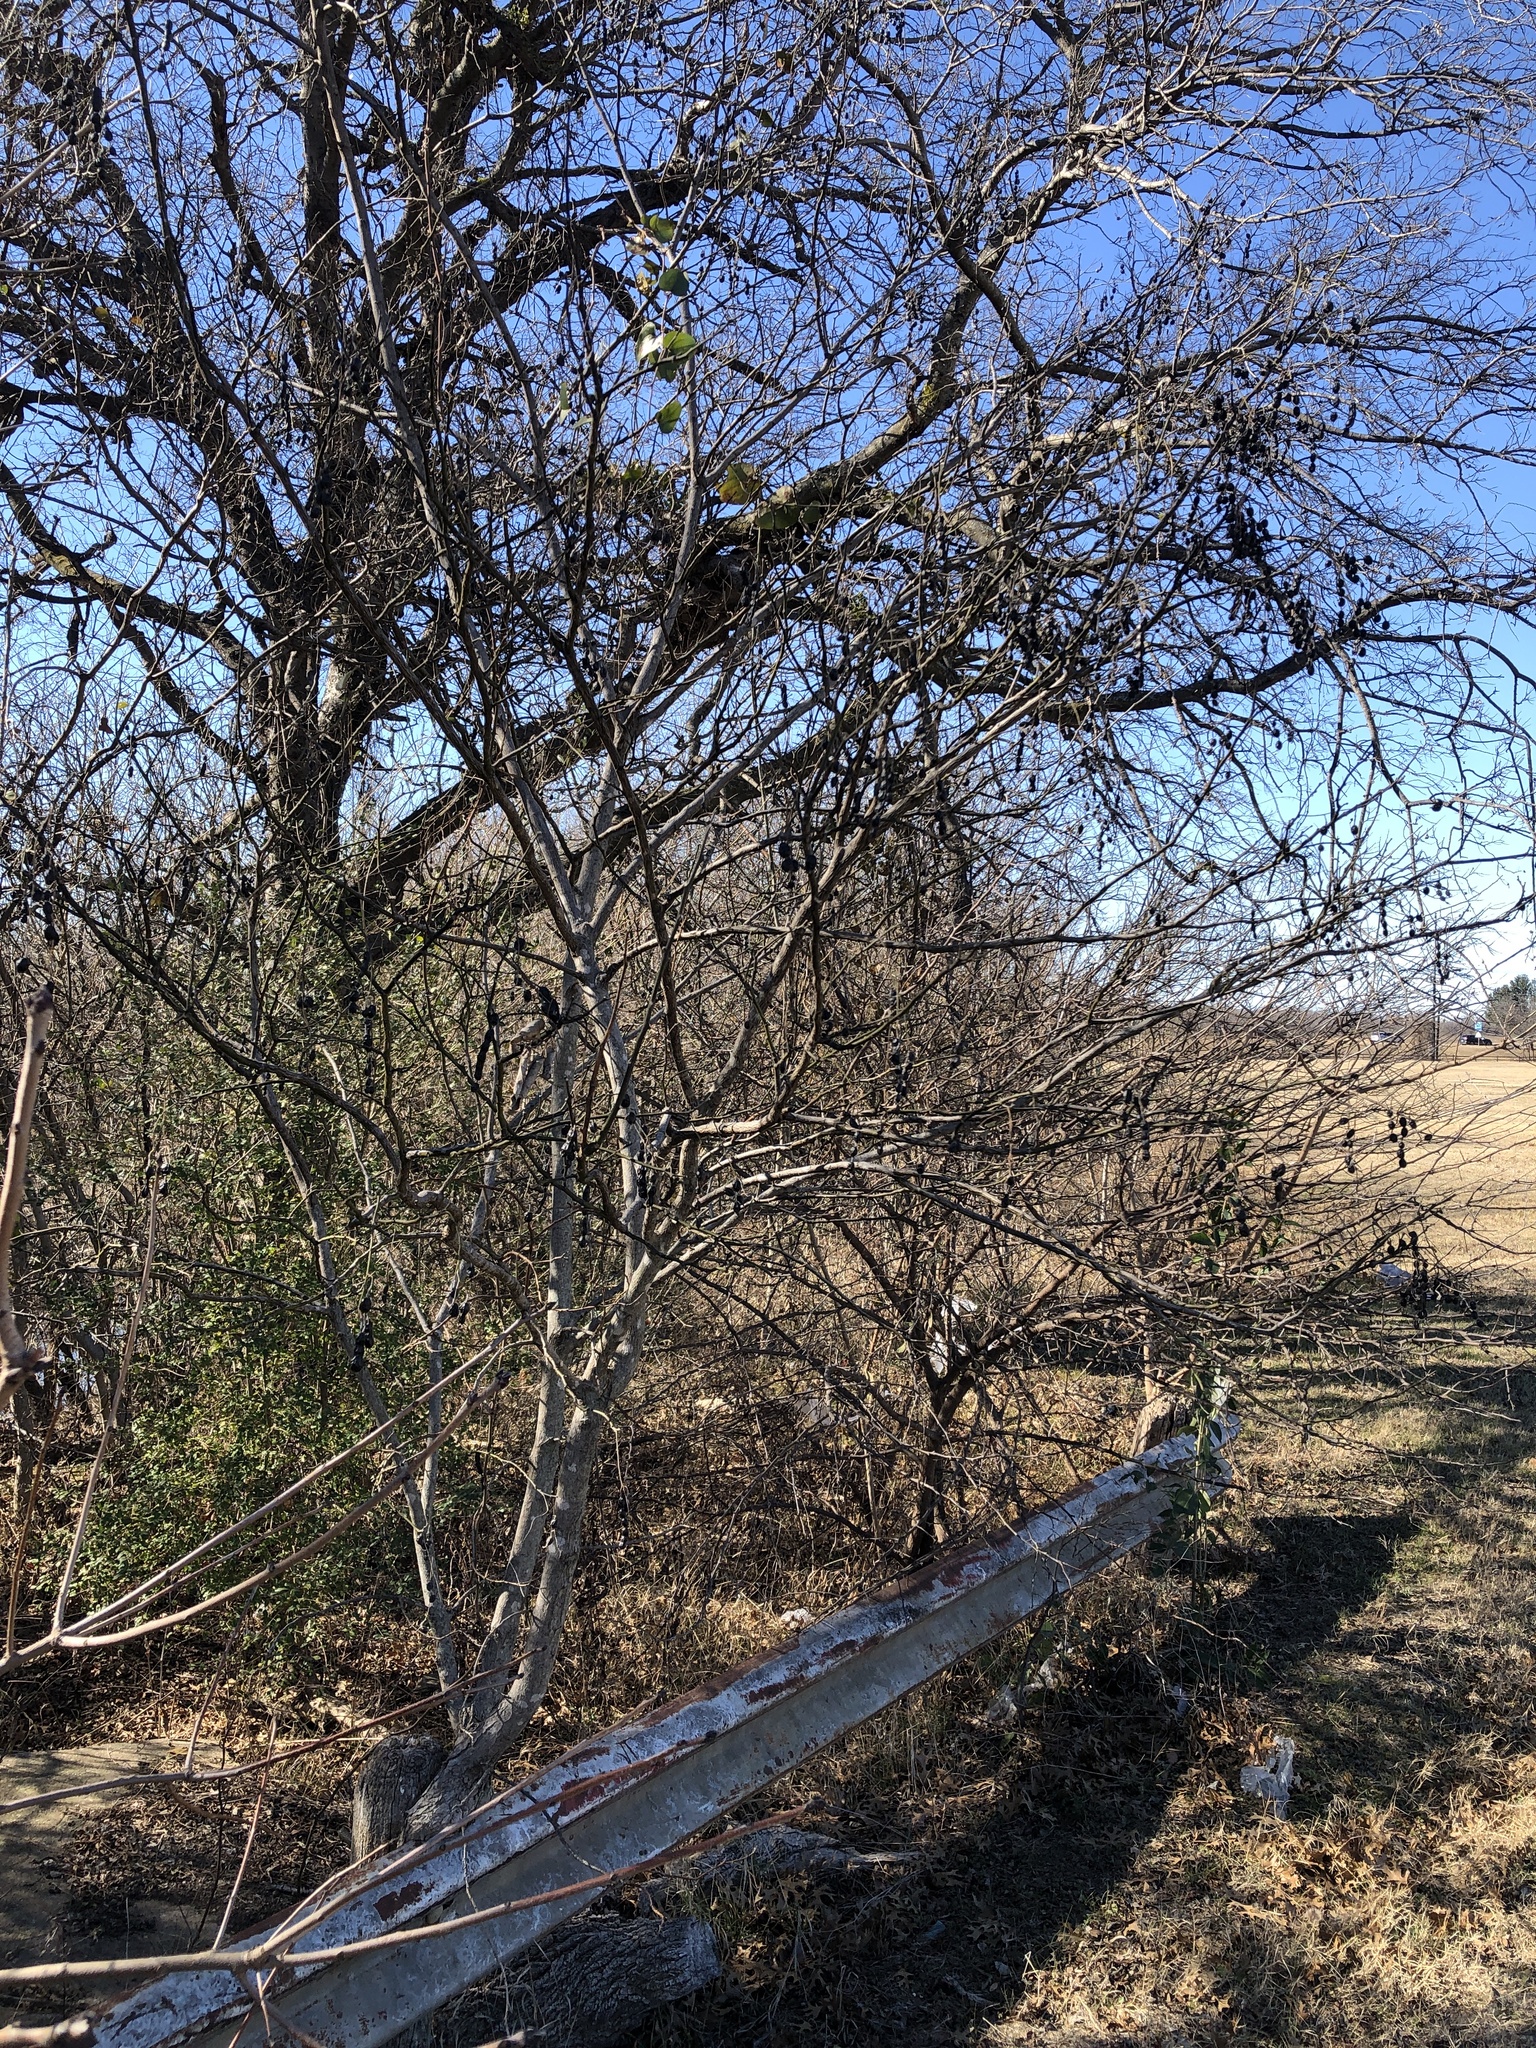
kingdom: Plantae
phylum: Tracheophyta
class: Magnoliopsida
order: Fabales
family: Fabaceae
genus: Styphnolobium
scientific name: Styphnolobium affine
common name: Texas sophora
